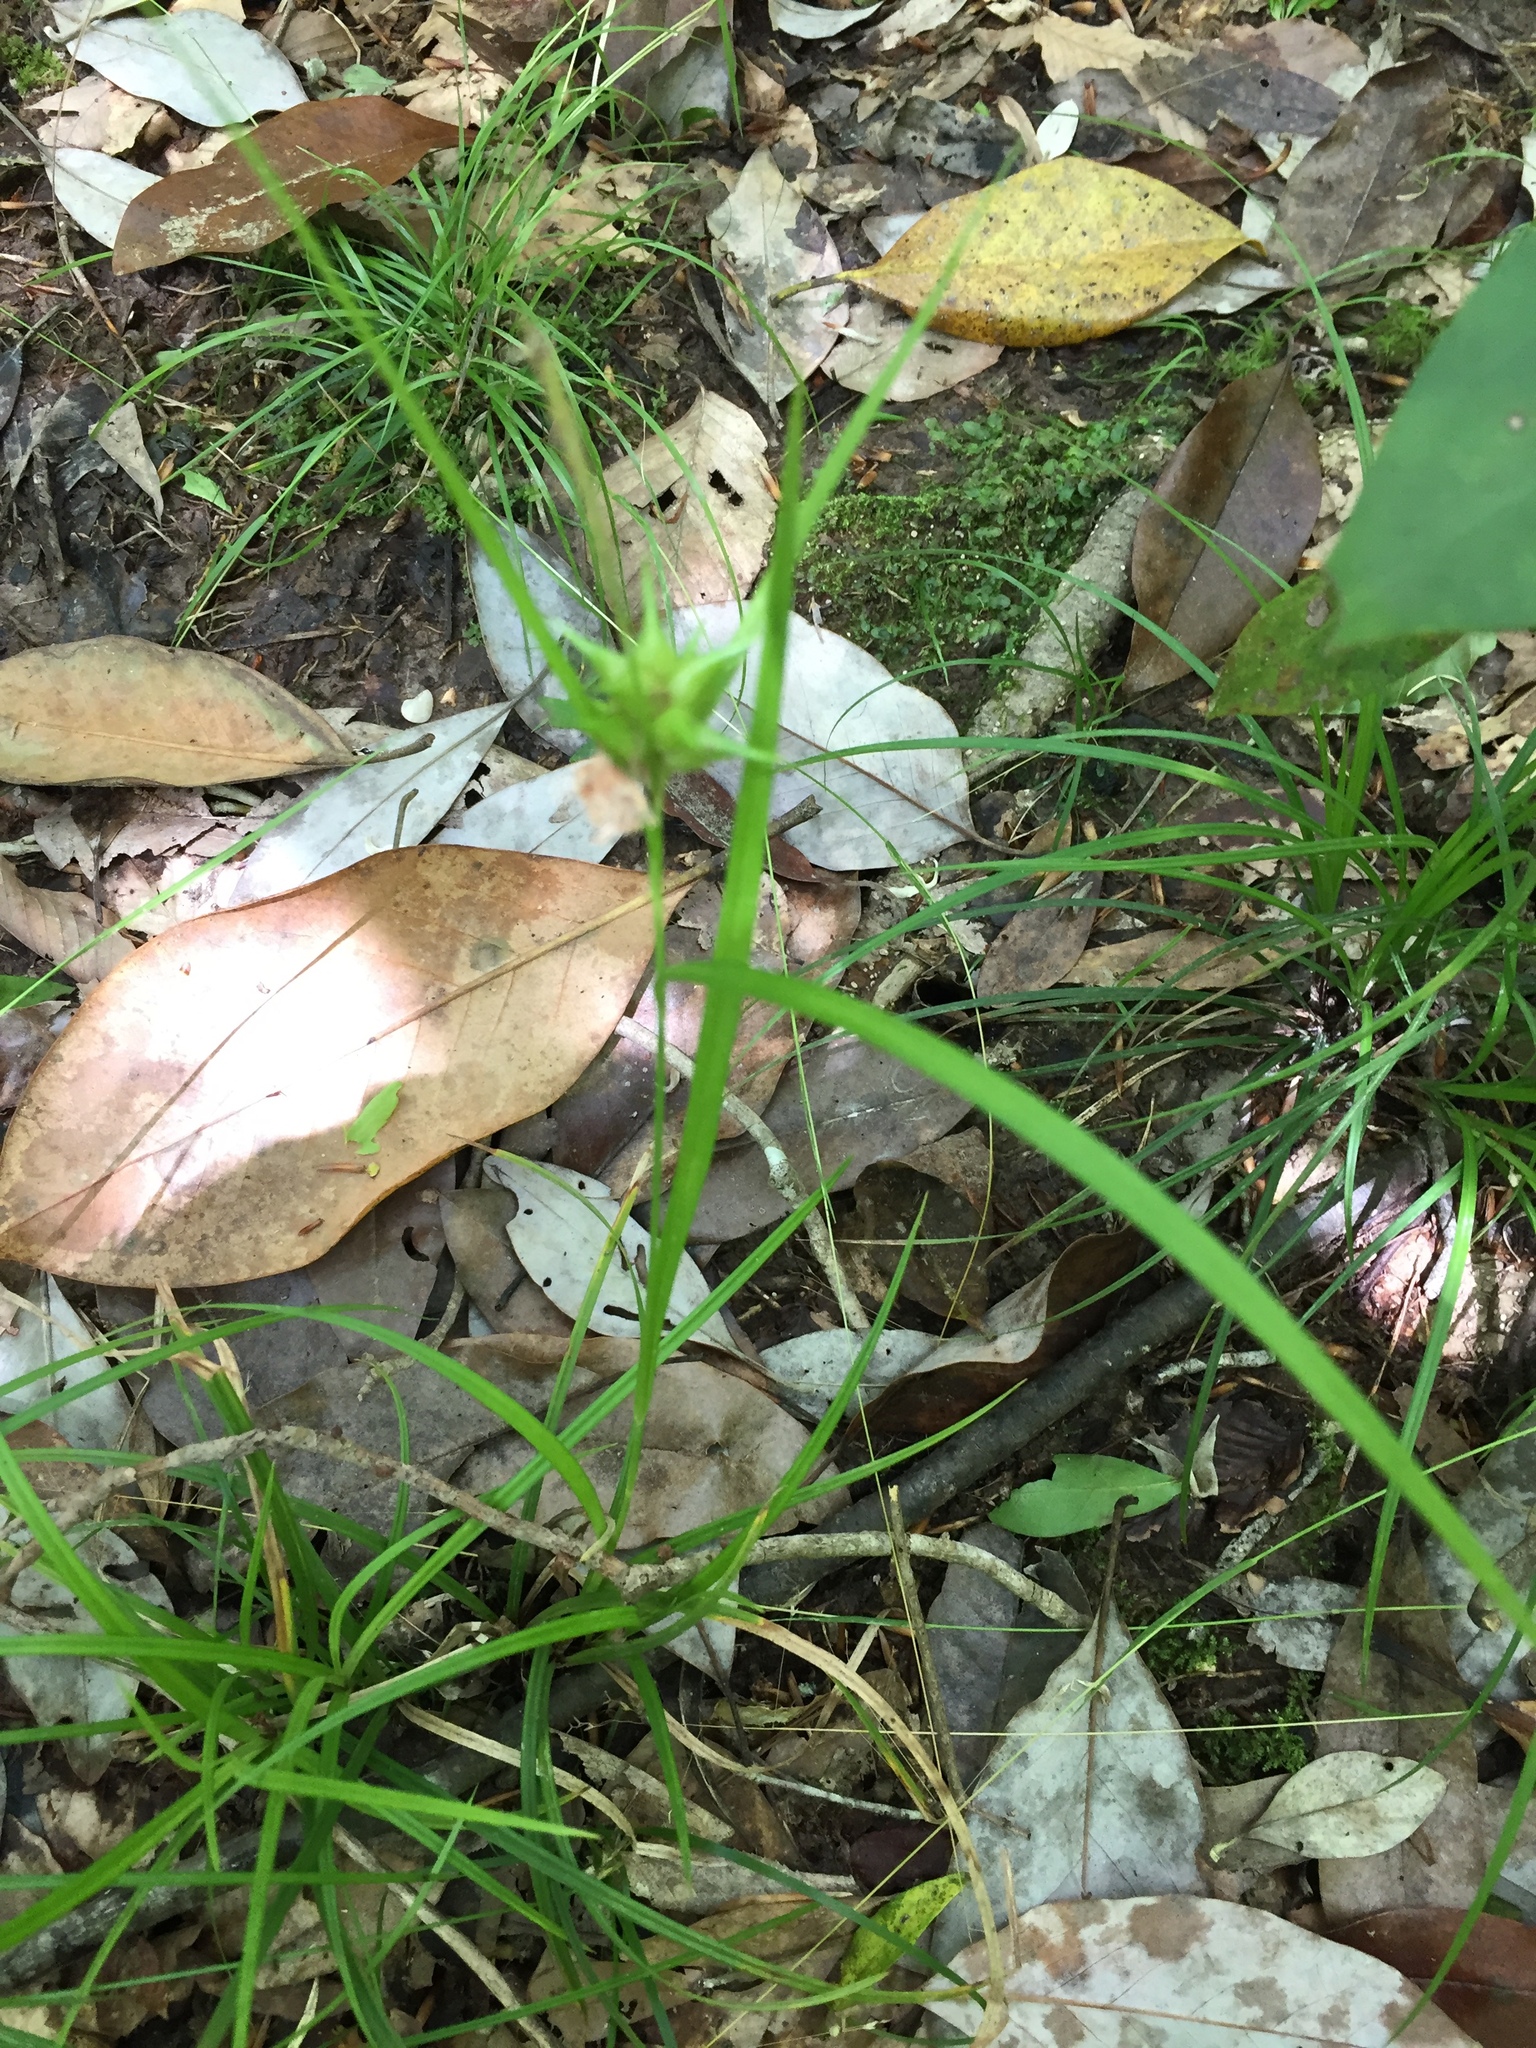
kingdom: Plantae
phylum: Tracheophyta
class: Liliopsida
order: Poales
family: Cyperaceae
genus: Carex
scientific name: Carex intumescens
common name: Greater bladder sedge
